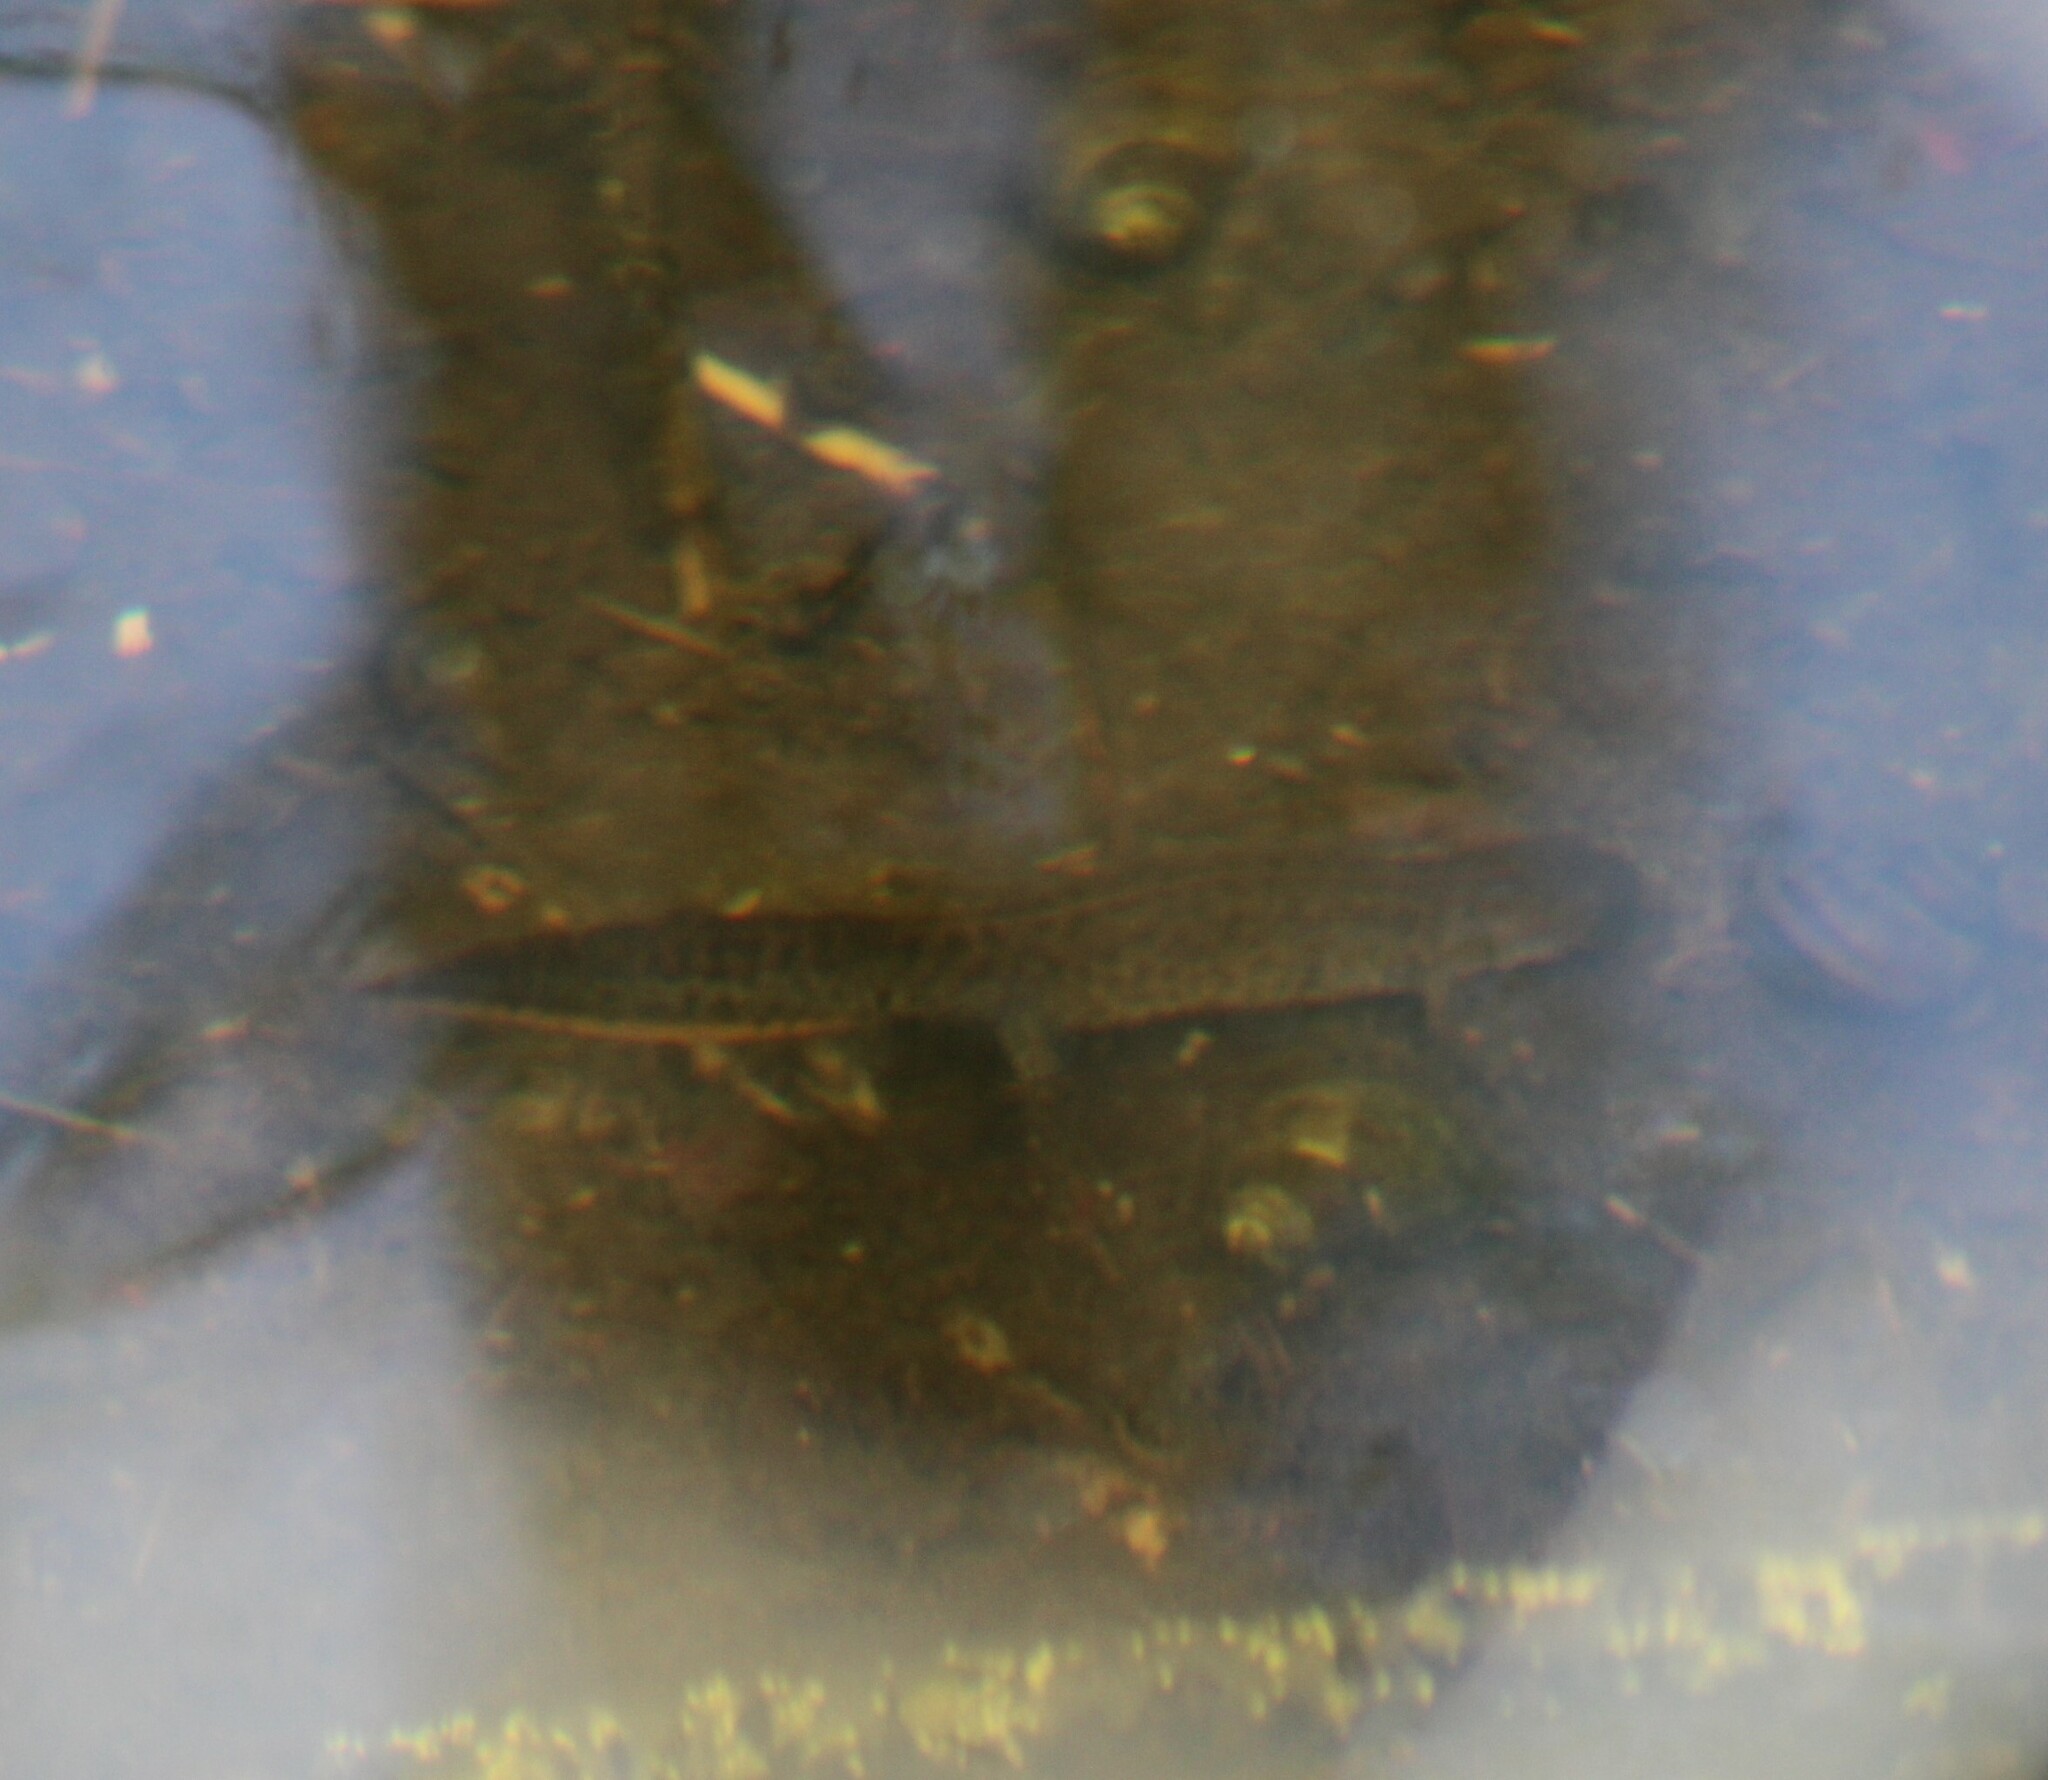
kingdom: Animalia
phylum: Chordata
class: Amphibia
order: Caudata
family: Salamandridae
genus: Triturus
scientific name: Triturus cristatus
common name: Crested newt
